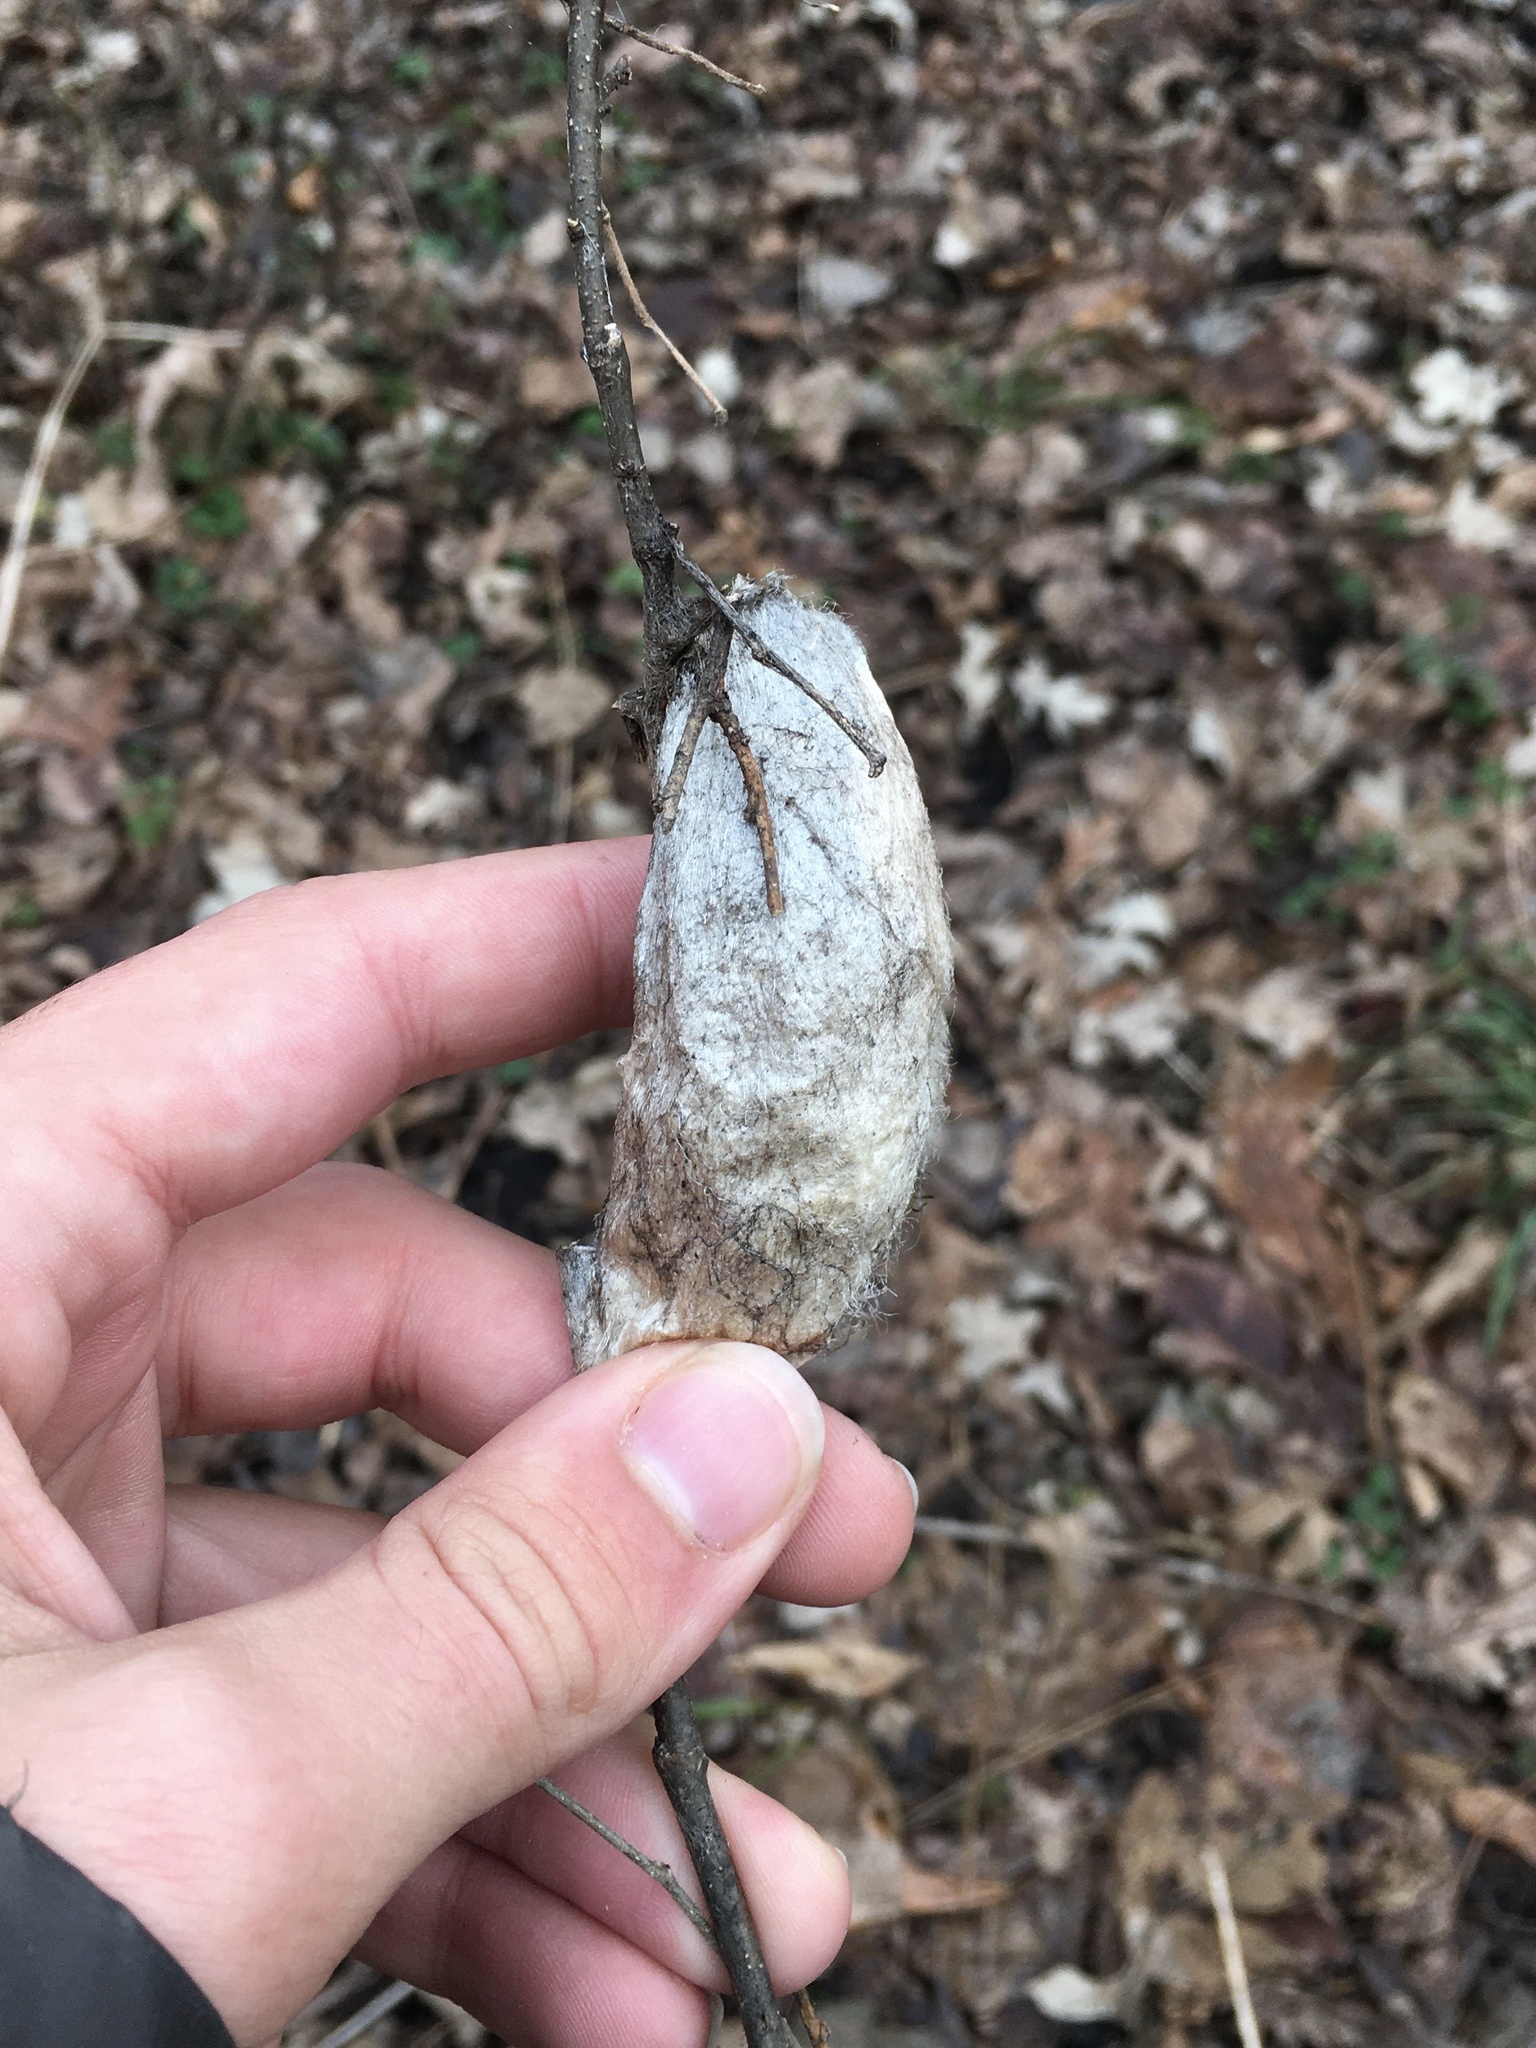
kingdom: Animalia
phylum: Arthropoda
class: Insecta
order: Lepidoptera
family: Saturniidae
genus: Hyalophora
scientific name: Hyalophora cecropia
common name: Cecropia silkmoth
